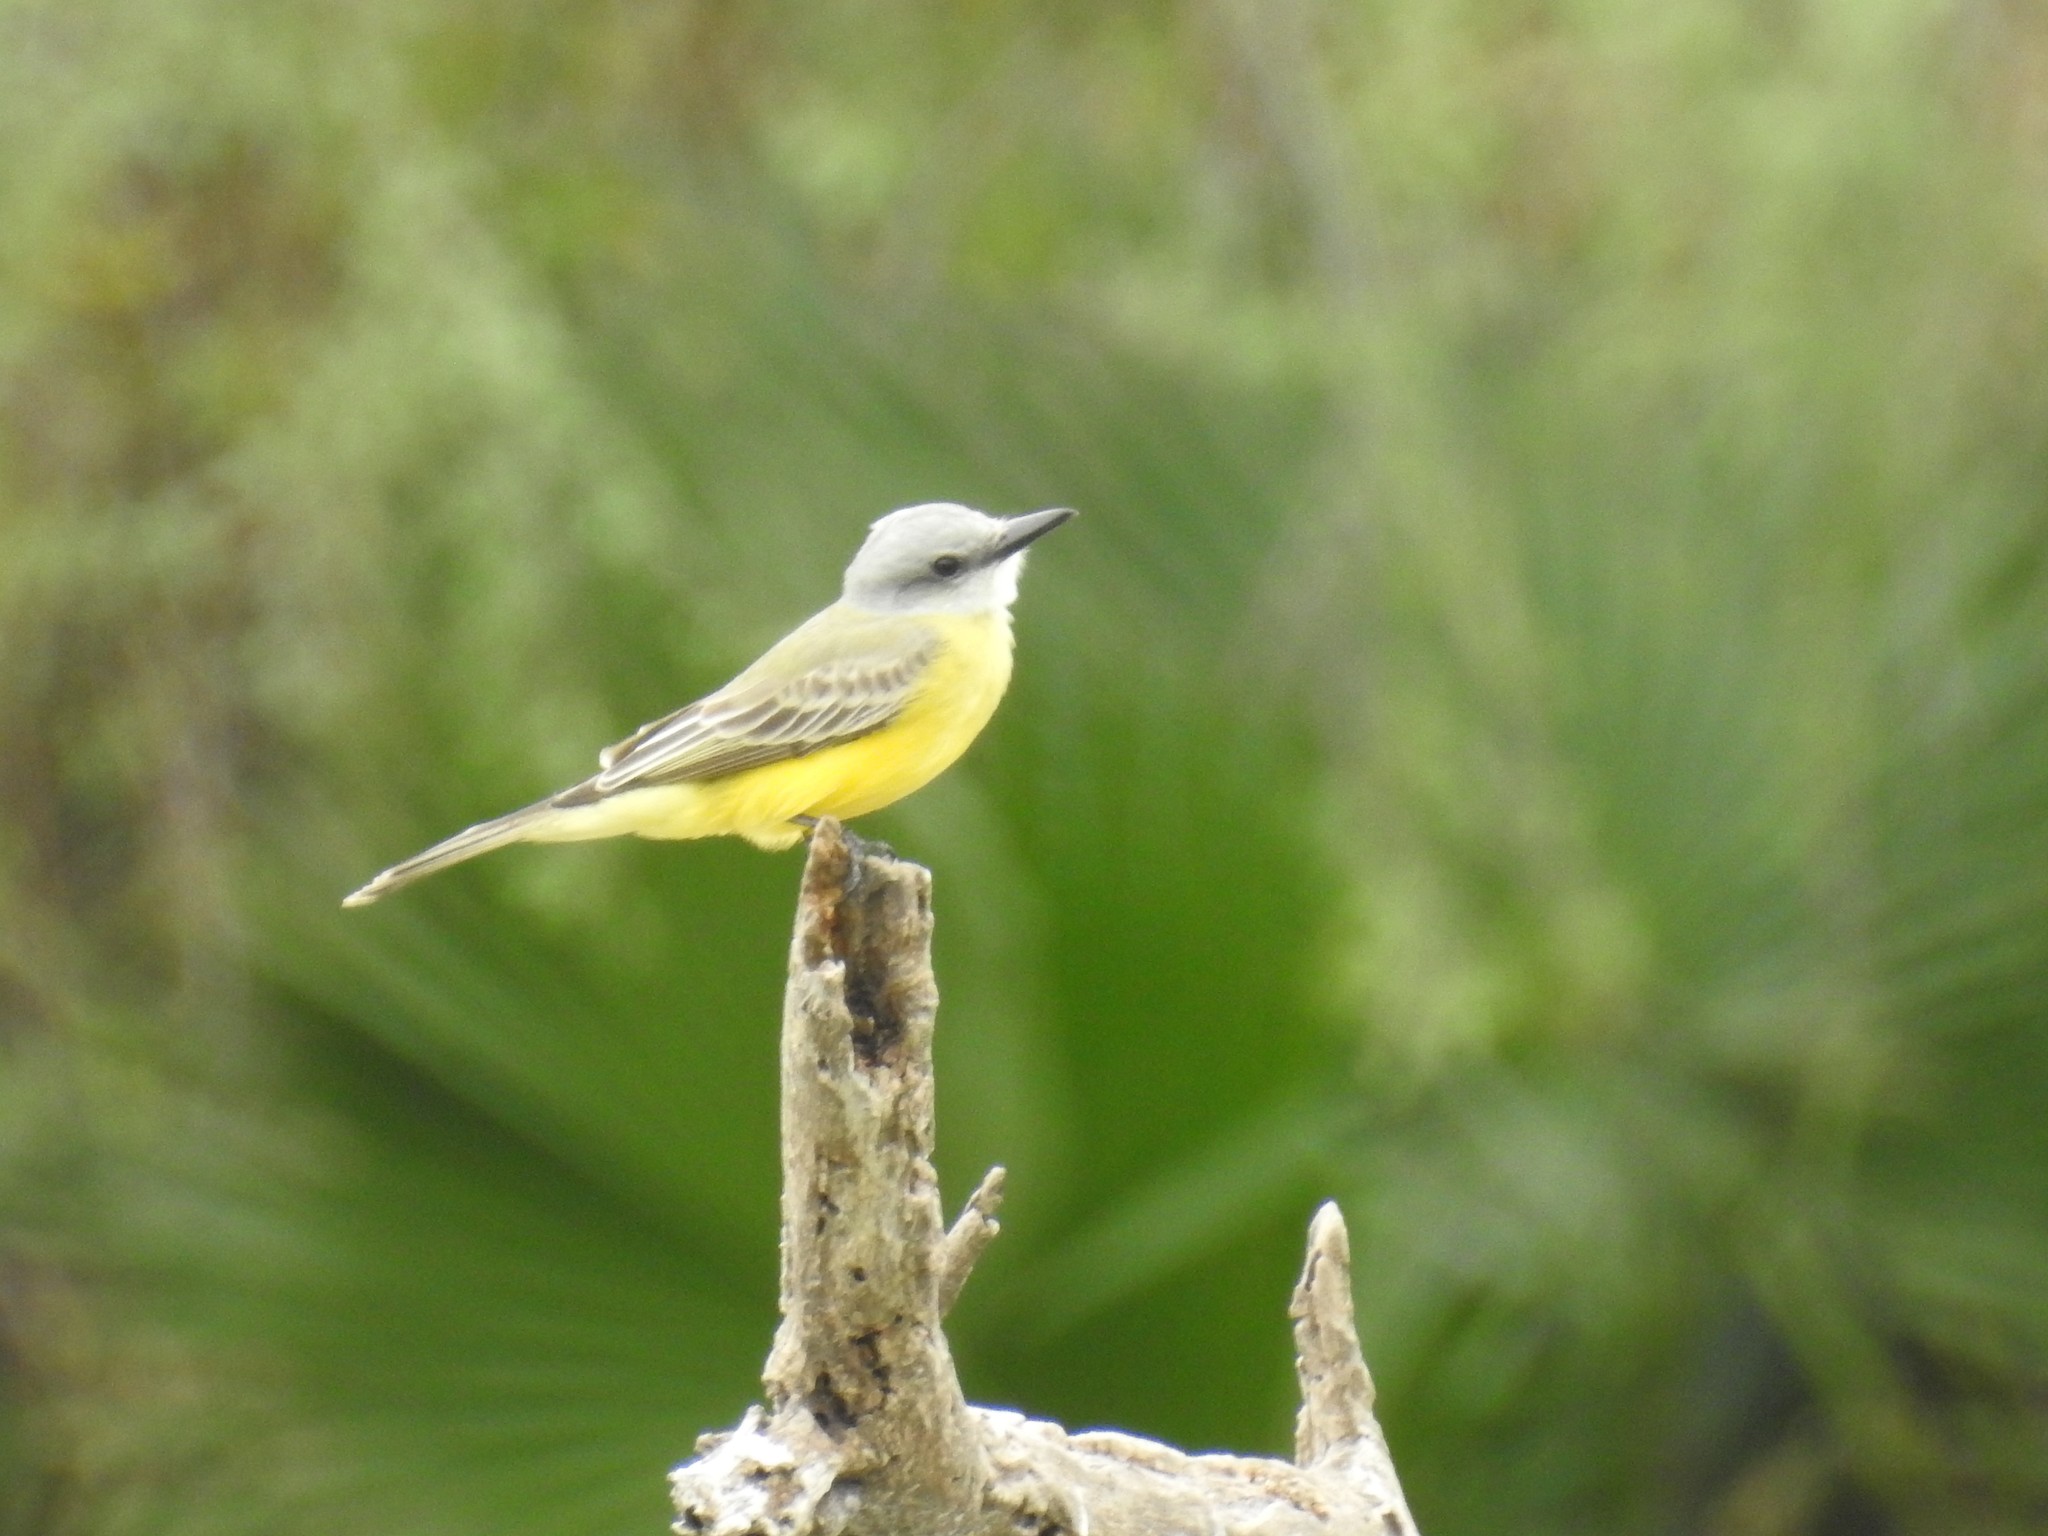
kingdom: Animalia
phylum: Chordata
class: Aves
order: Passeriformes
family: Tyrannidae
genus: Tyrannus
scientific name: Tyrannus
